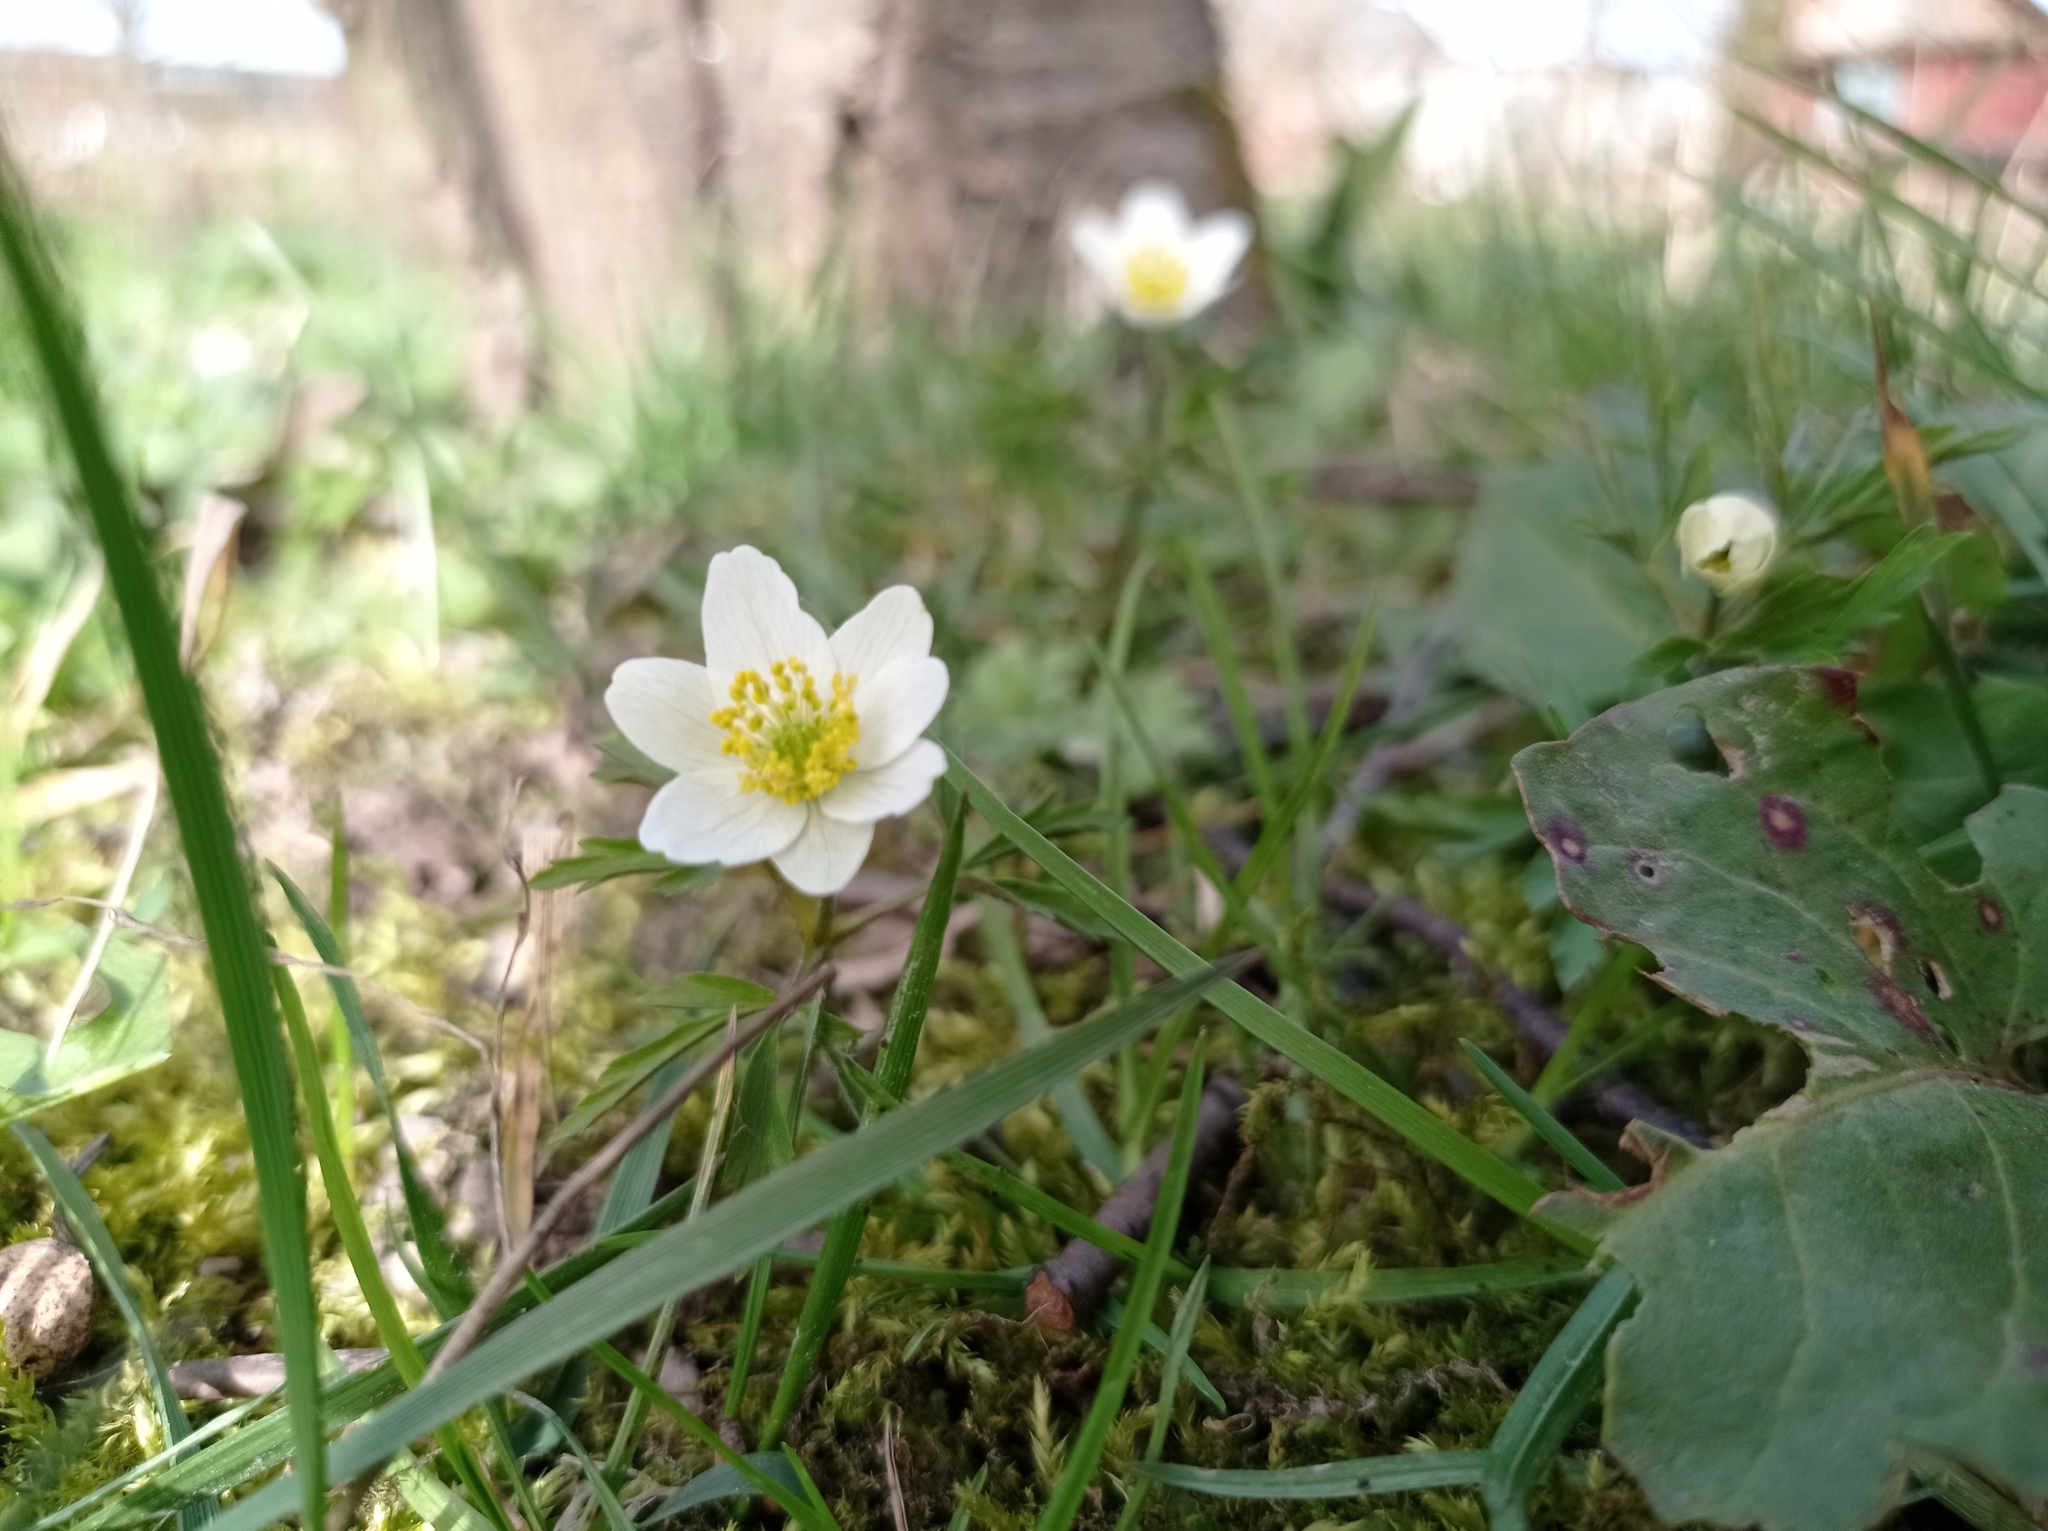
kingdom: Plantae
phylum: Tracheophyta
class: Magnoliopsida
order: Ranunculales
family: Ranunculaceae
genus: Anemone
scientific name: Anemone nemorosa
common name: Wood anemone
